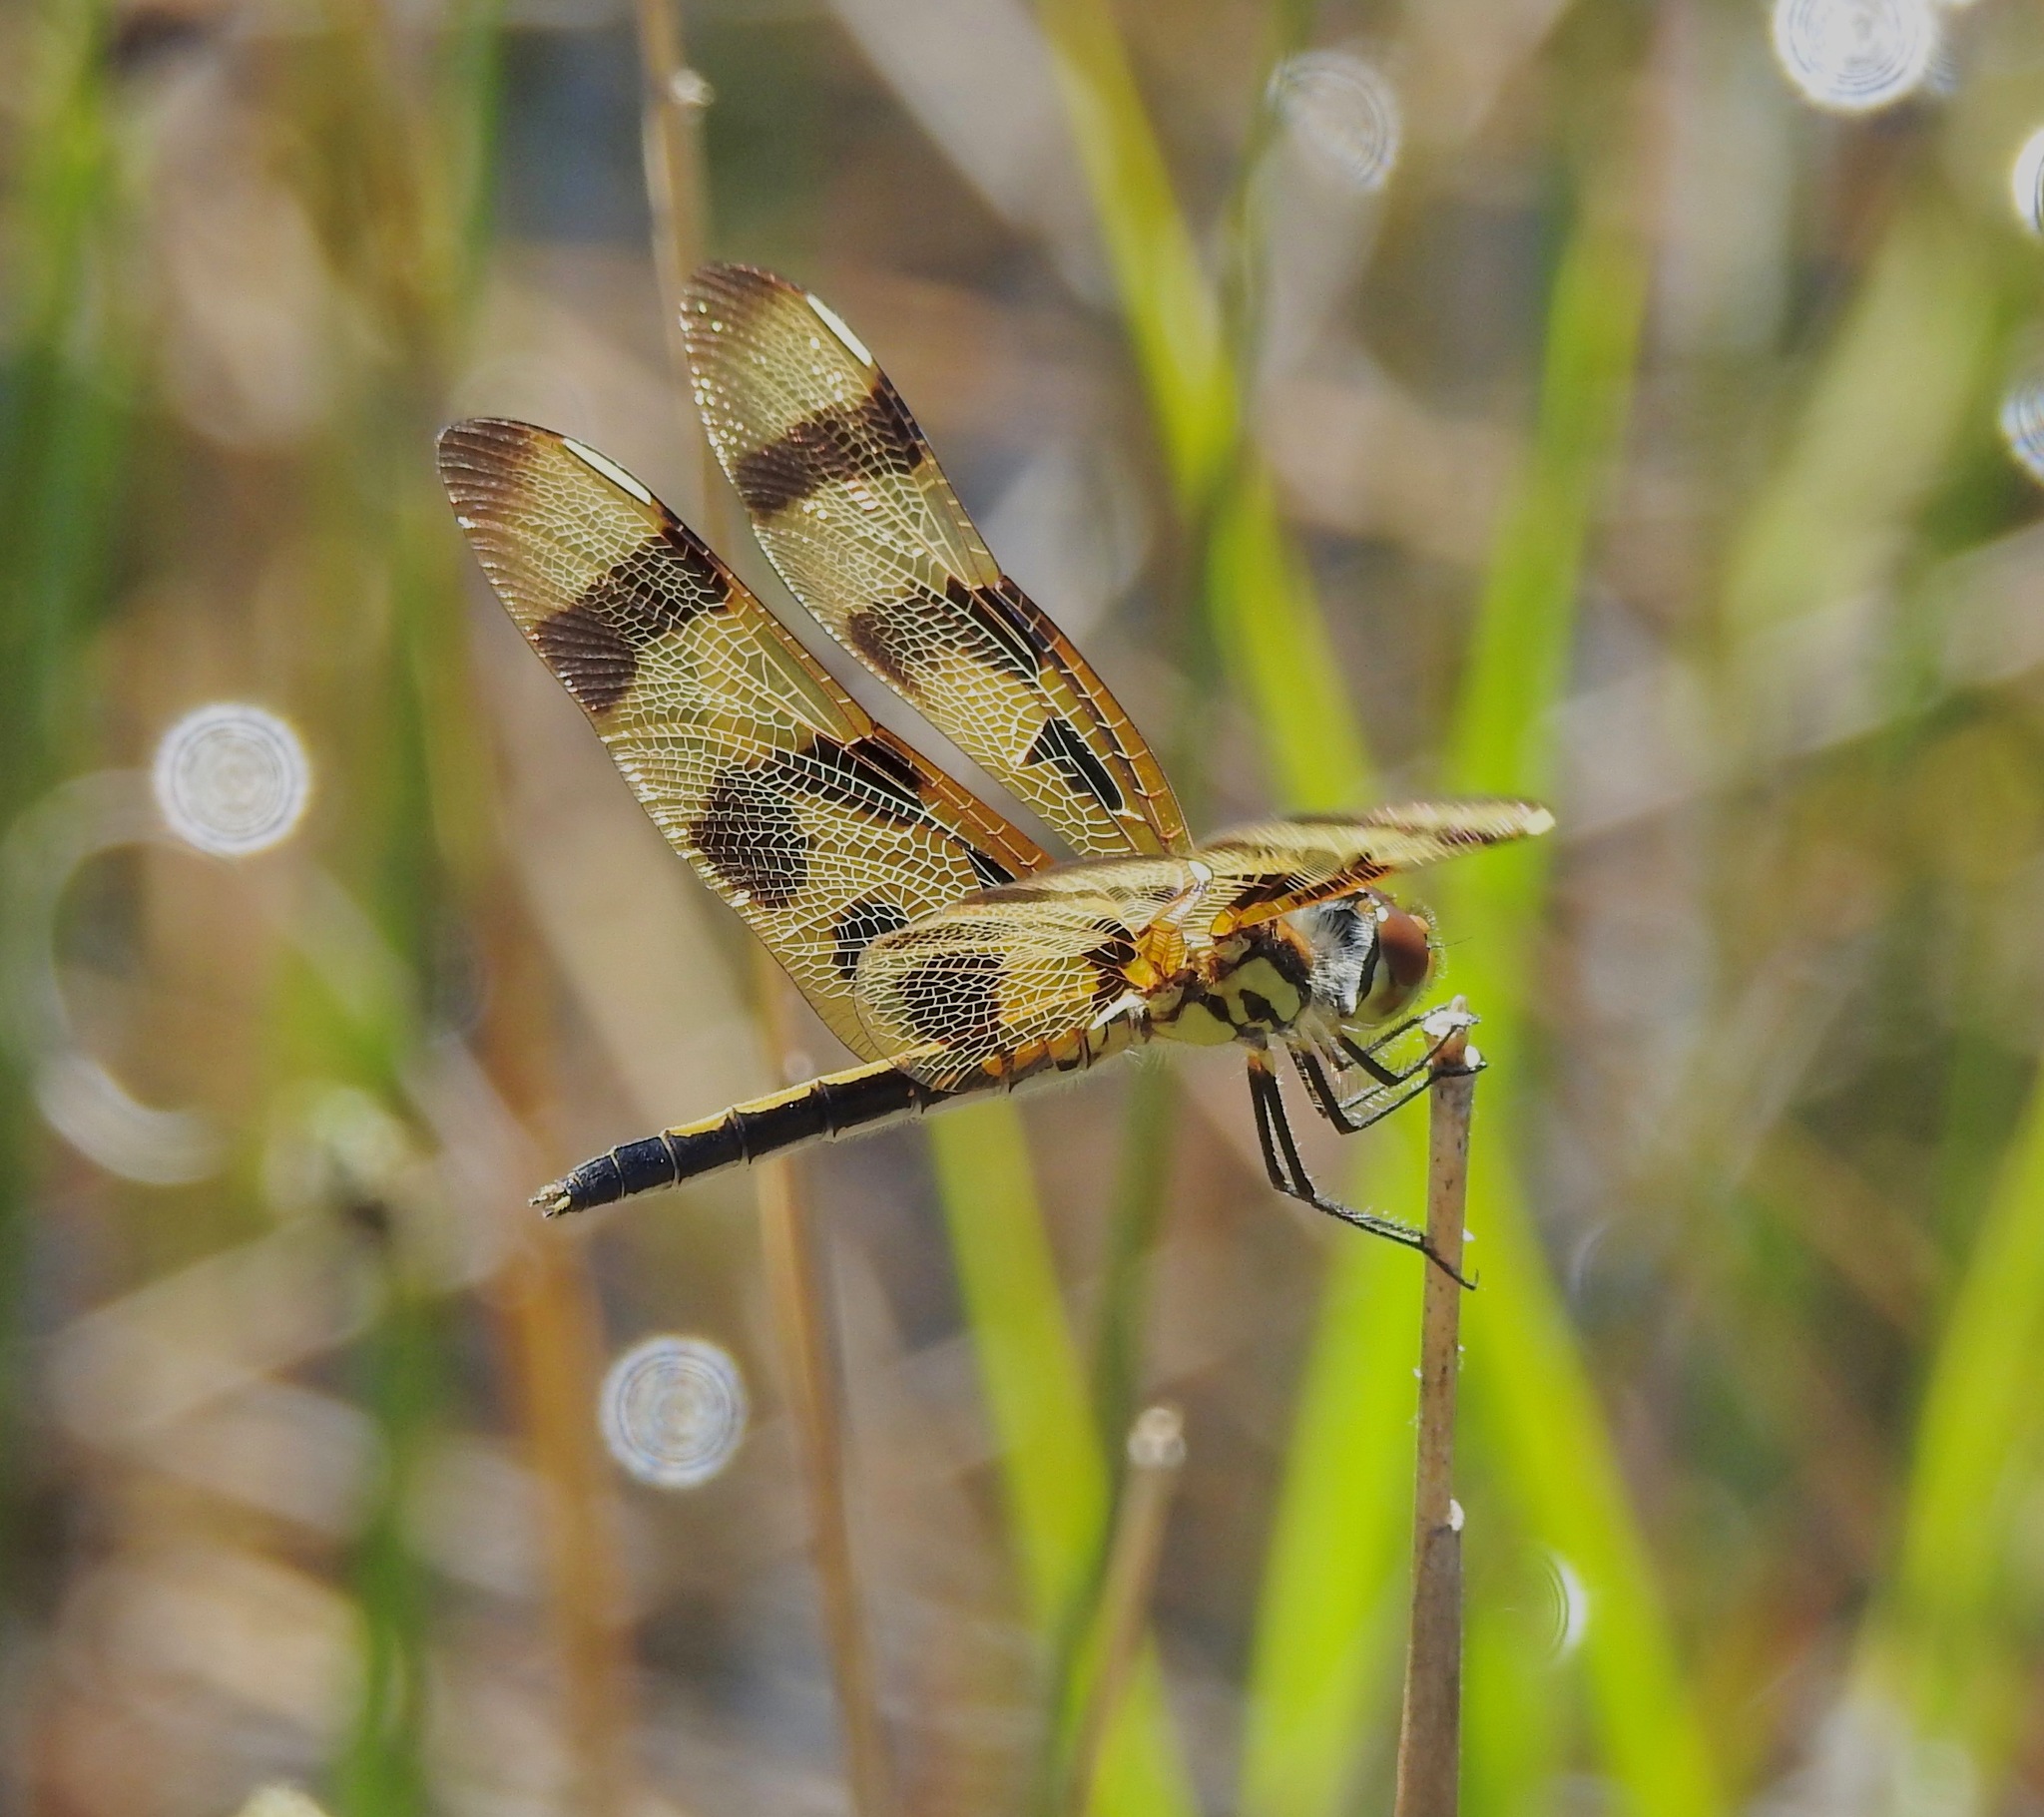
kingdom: Animalia
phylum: Arthropoda
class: Insecta
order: Odonata
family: Libellulidae
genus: Celithemis
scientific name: Celithemis eponina
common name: Halloween pennant
